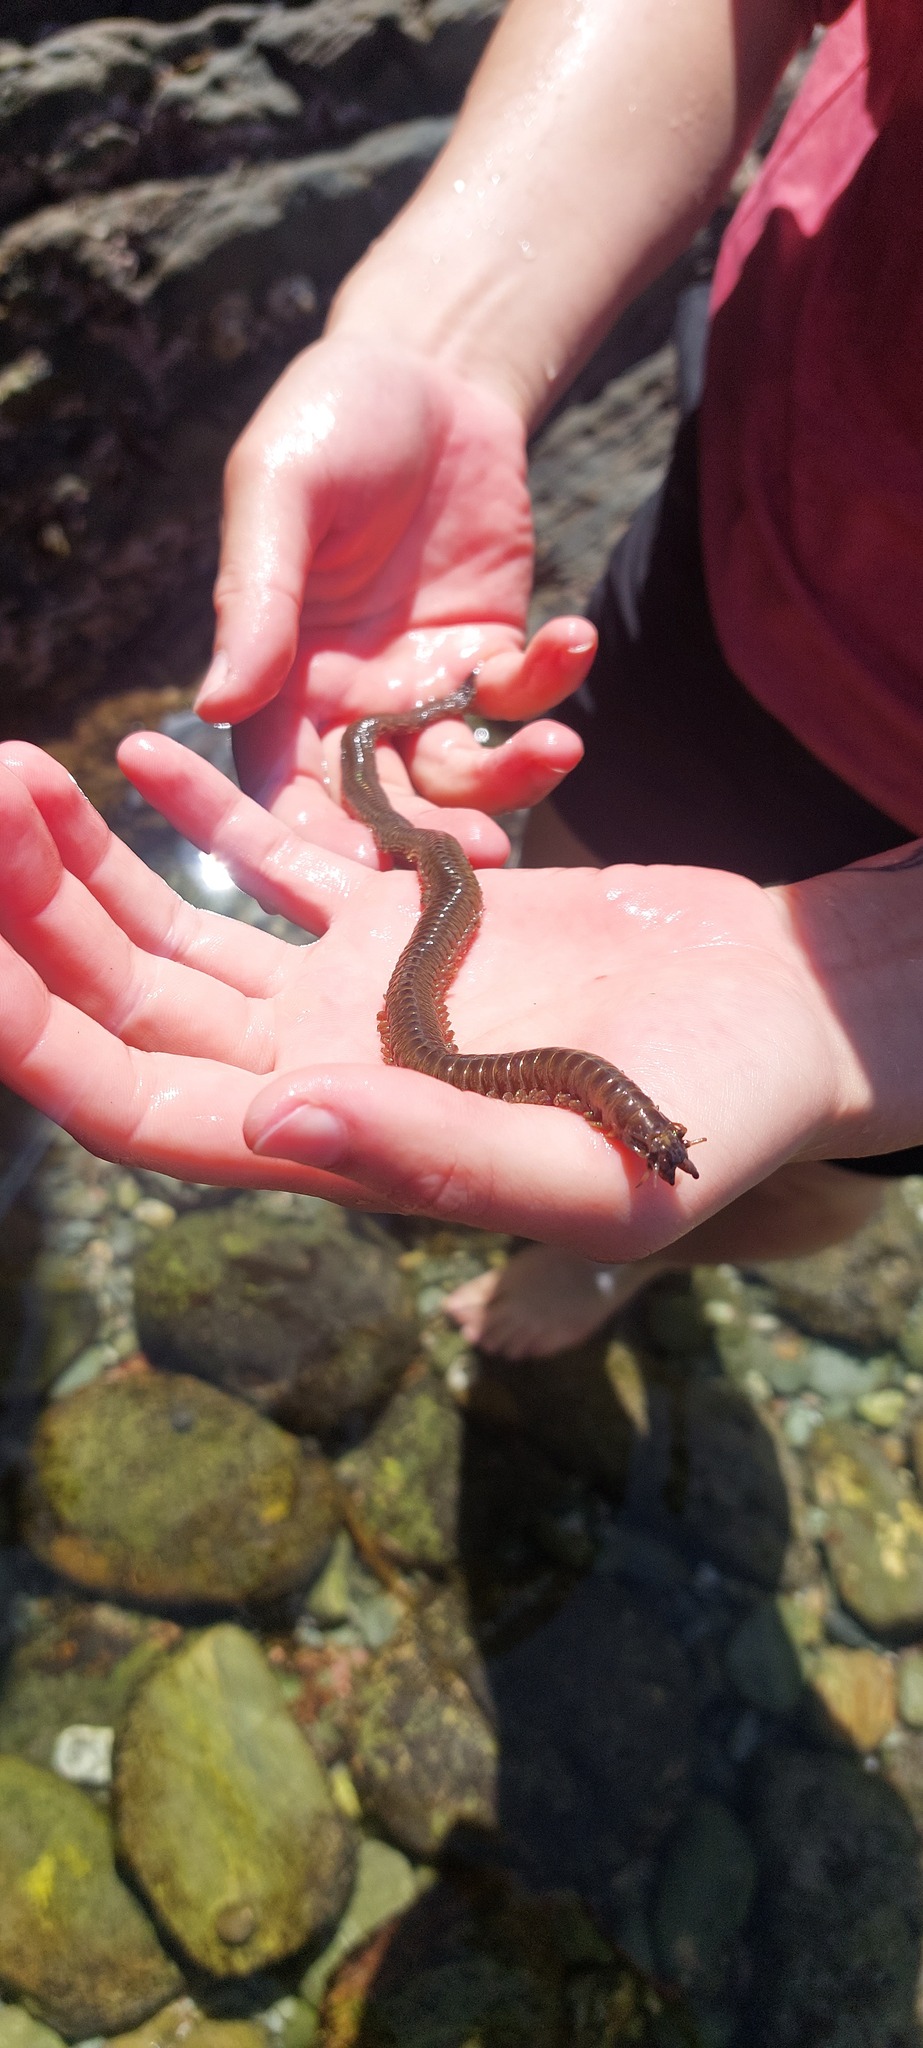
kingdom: Animalia
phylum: Annelida
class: Polychaeta
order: Phyllodocida
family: Nereididae
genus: Perinereis
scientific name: Perinereis amblyodonta
